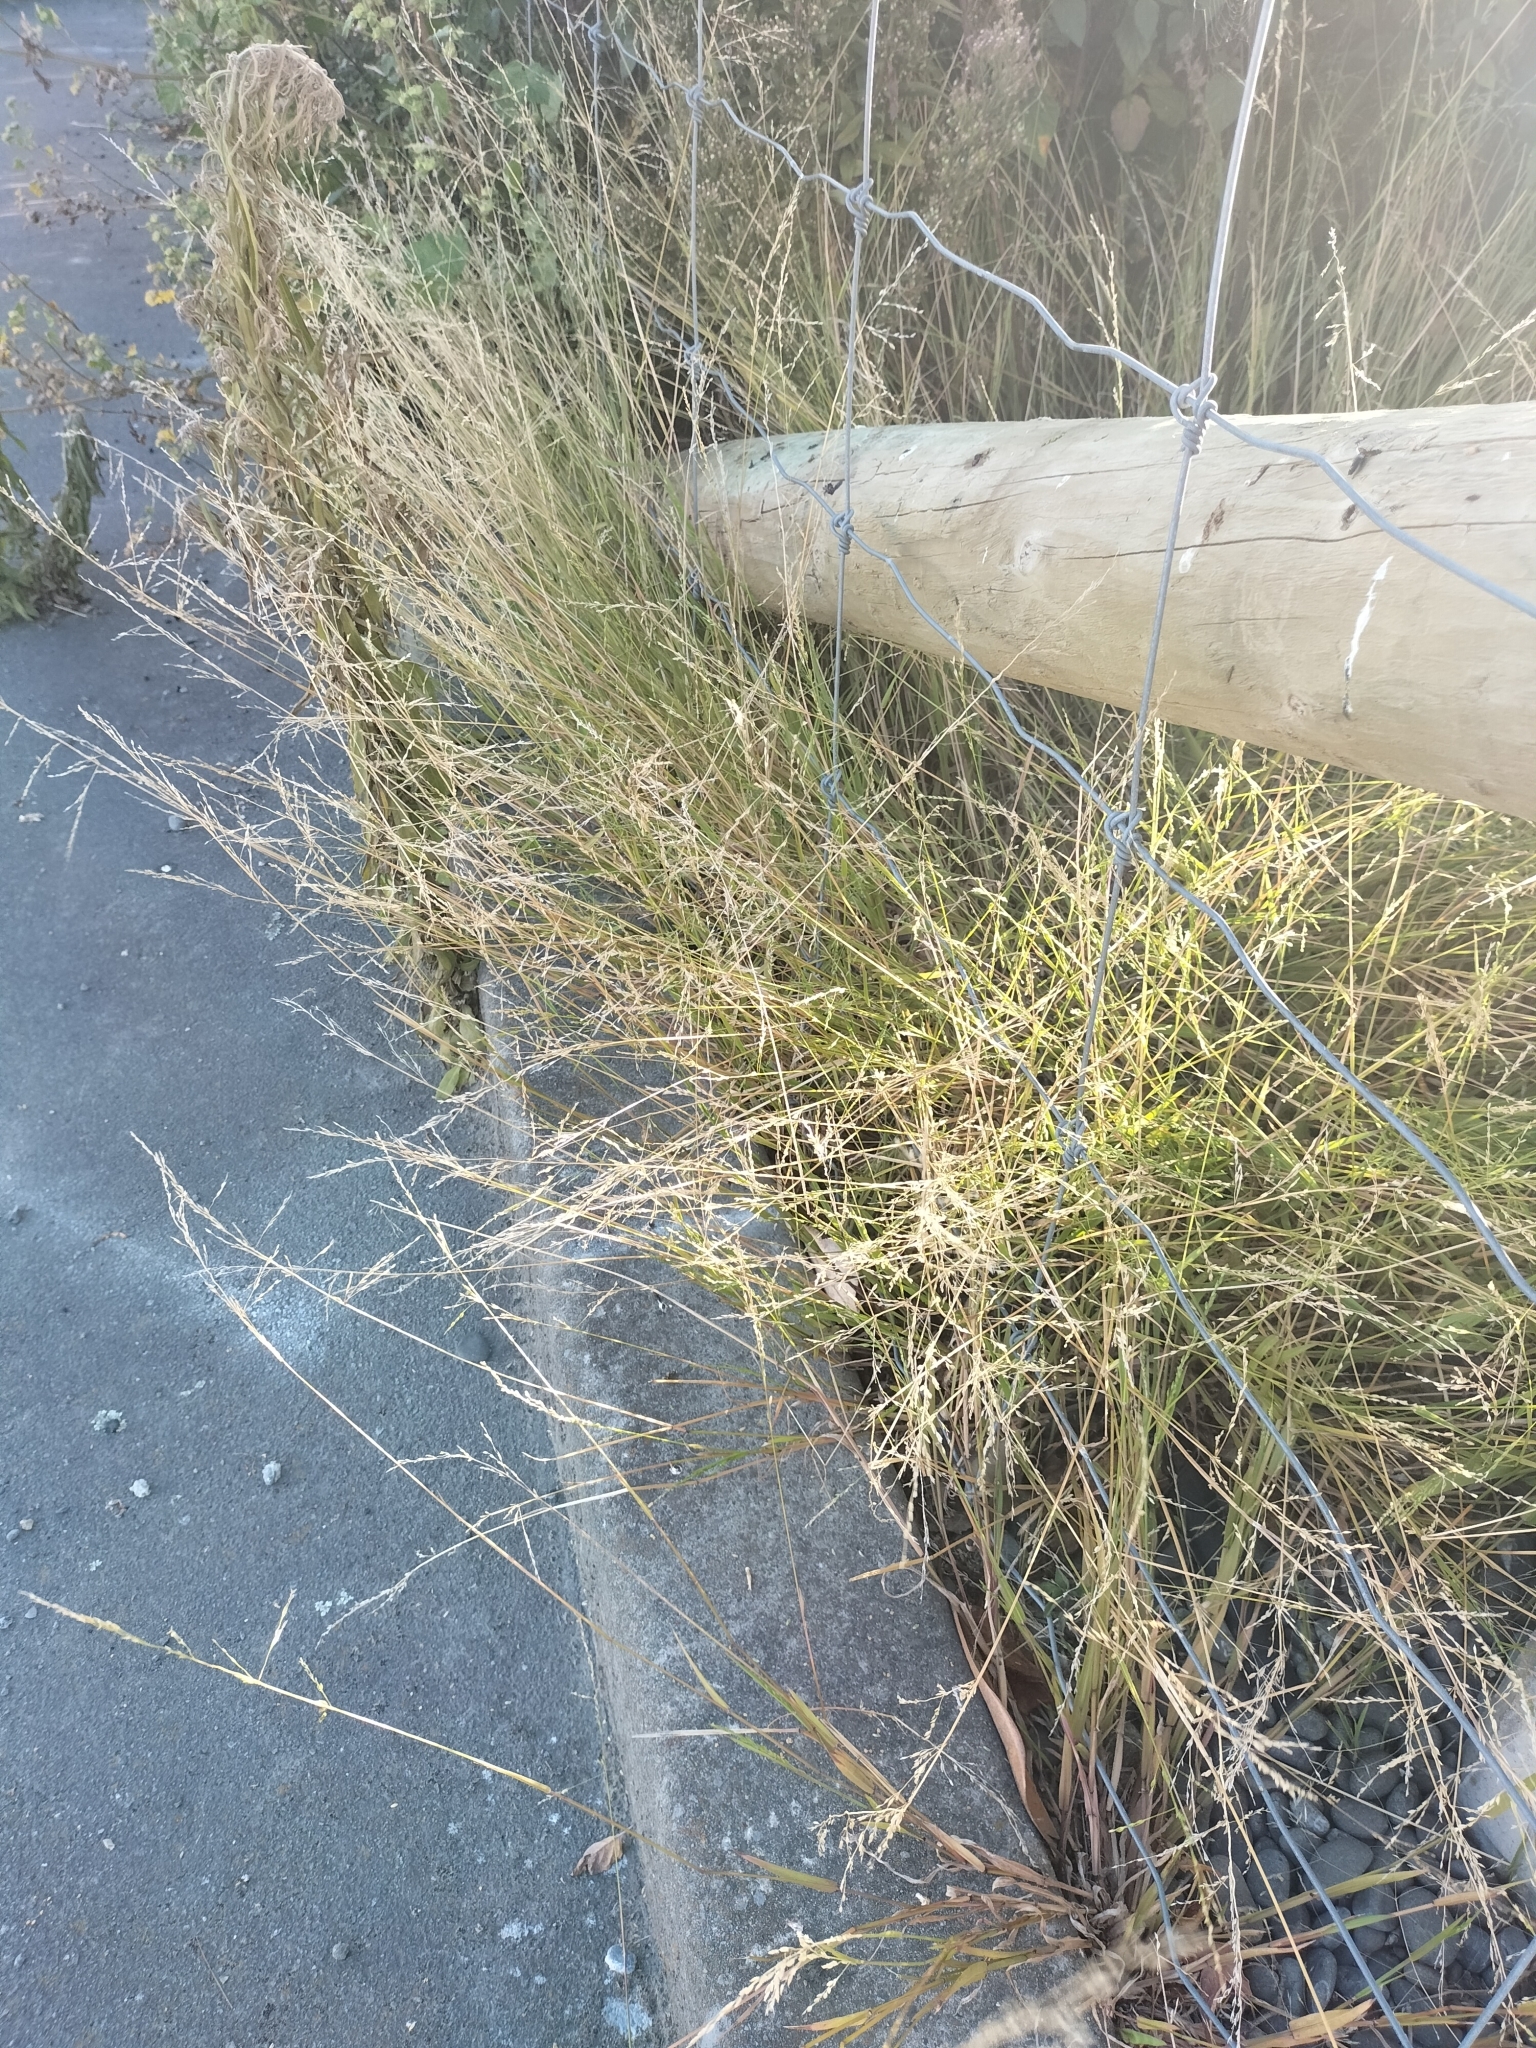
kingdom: Plantae
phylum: Tracheophyta
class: Liliopsida
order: Poales
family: Poaceae
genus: Ehrharta
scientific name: Ehrharta erecta
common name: Panic veldtgrass
